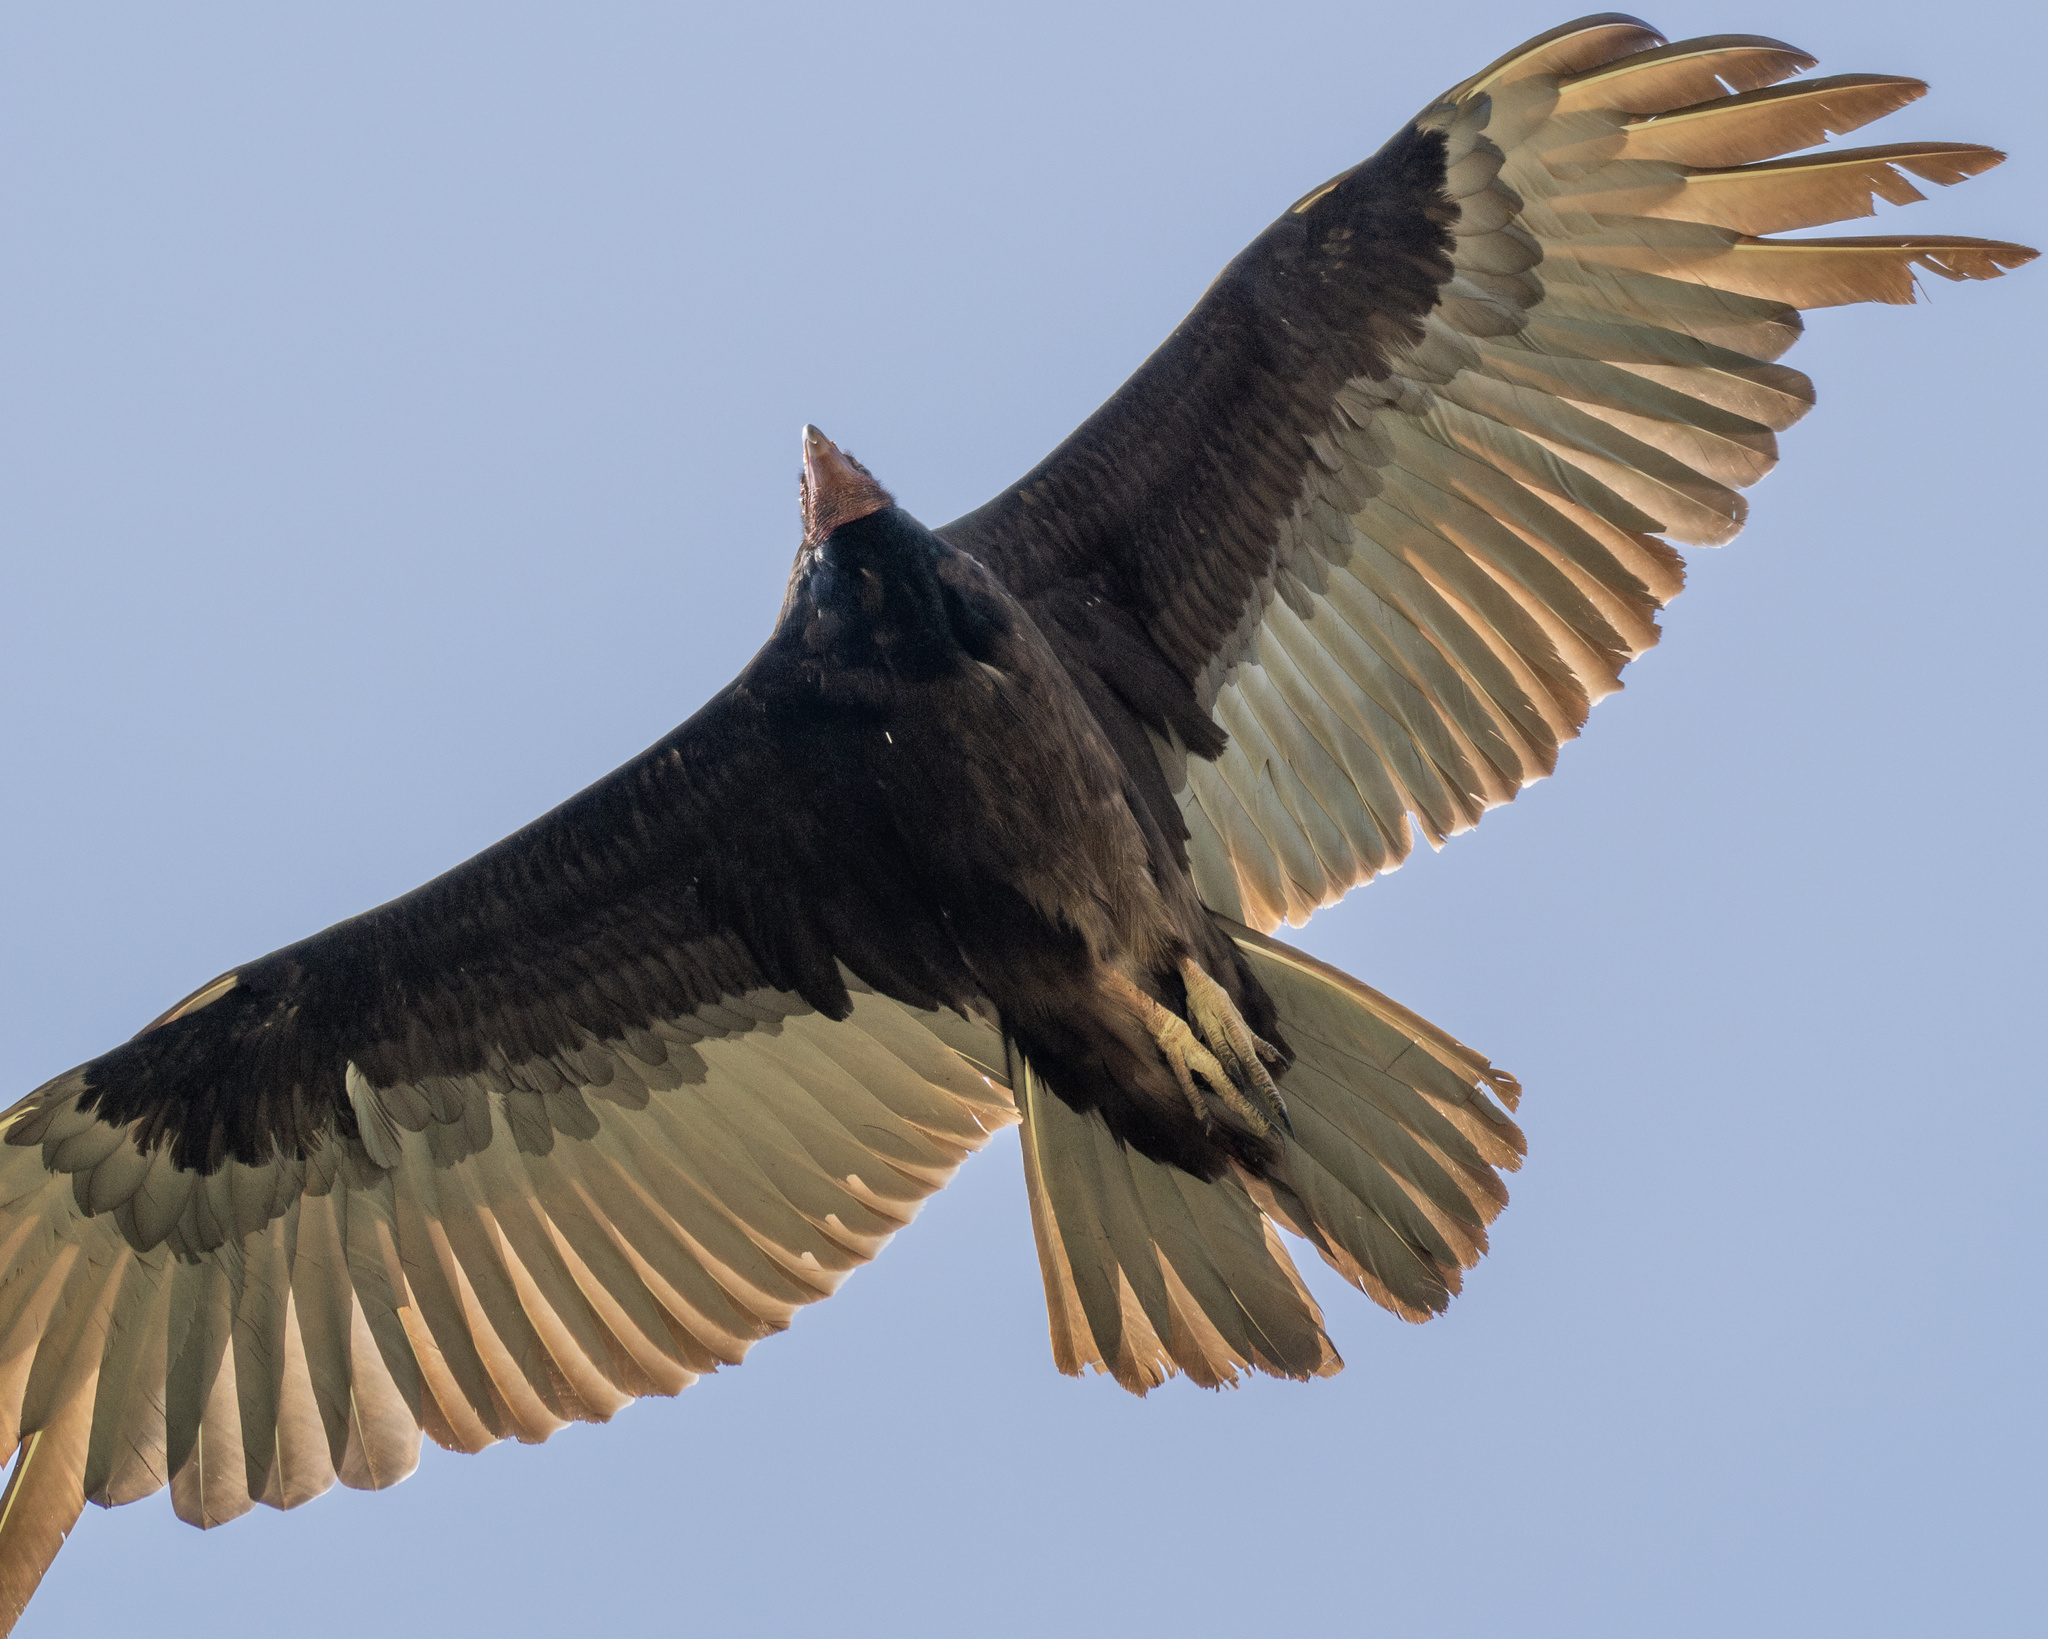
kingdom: Animalia
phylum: Chordata
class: Aves
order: Accipitriformes
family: Cathartidae
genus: Cathartes
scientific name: Cathartes aura
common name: Turkey vulture
